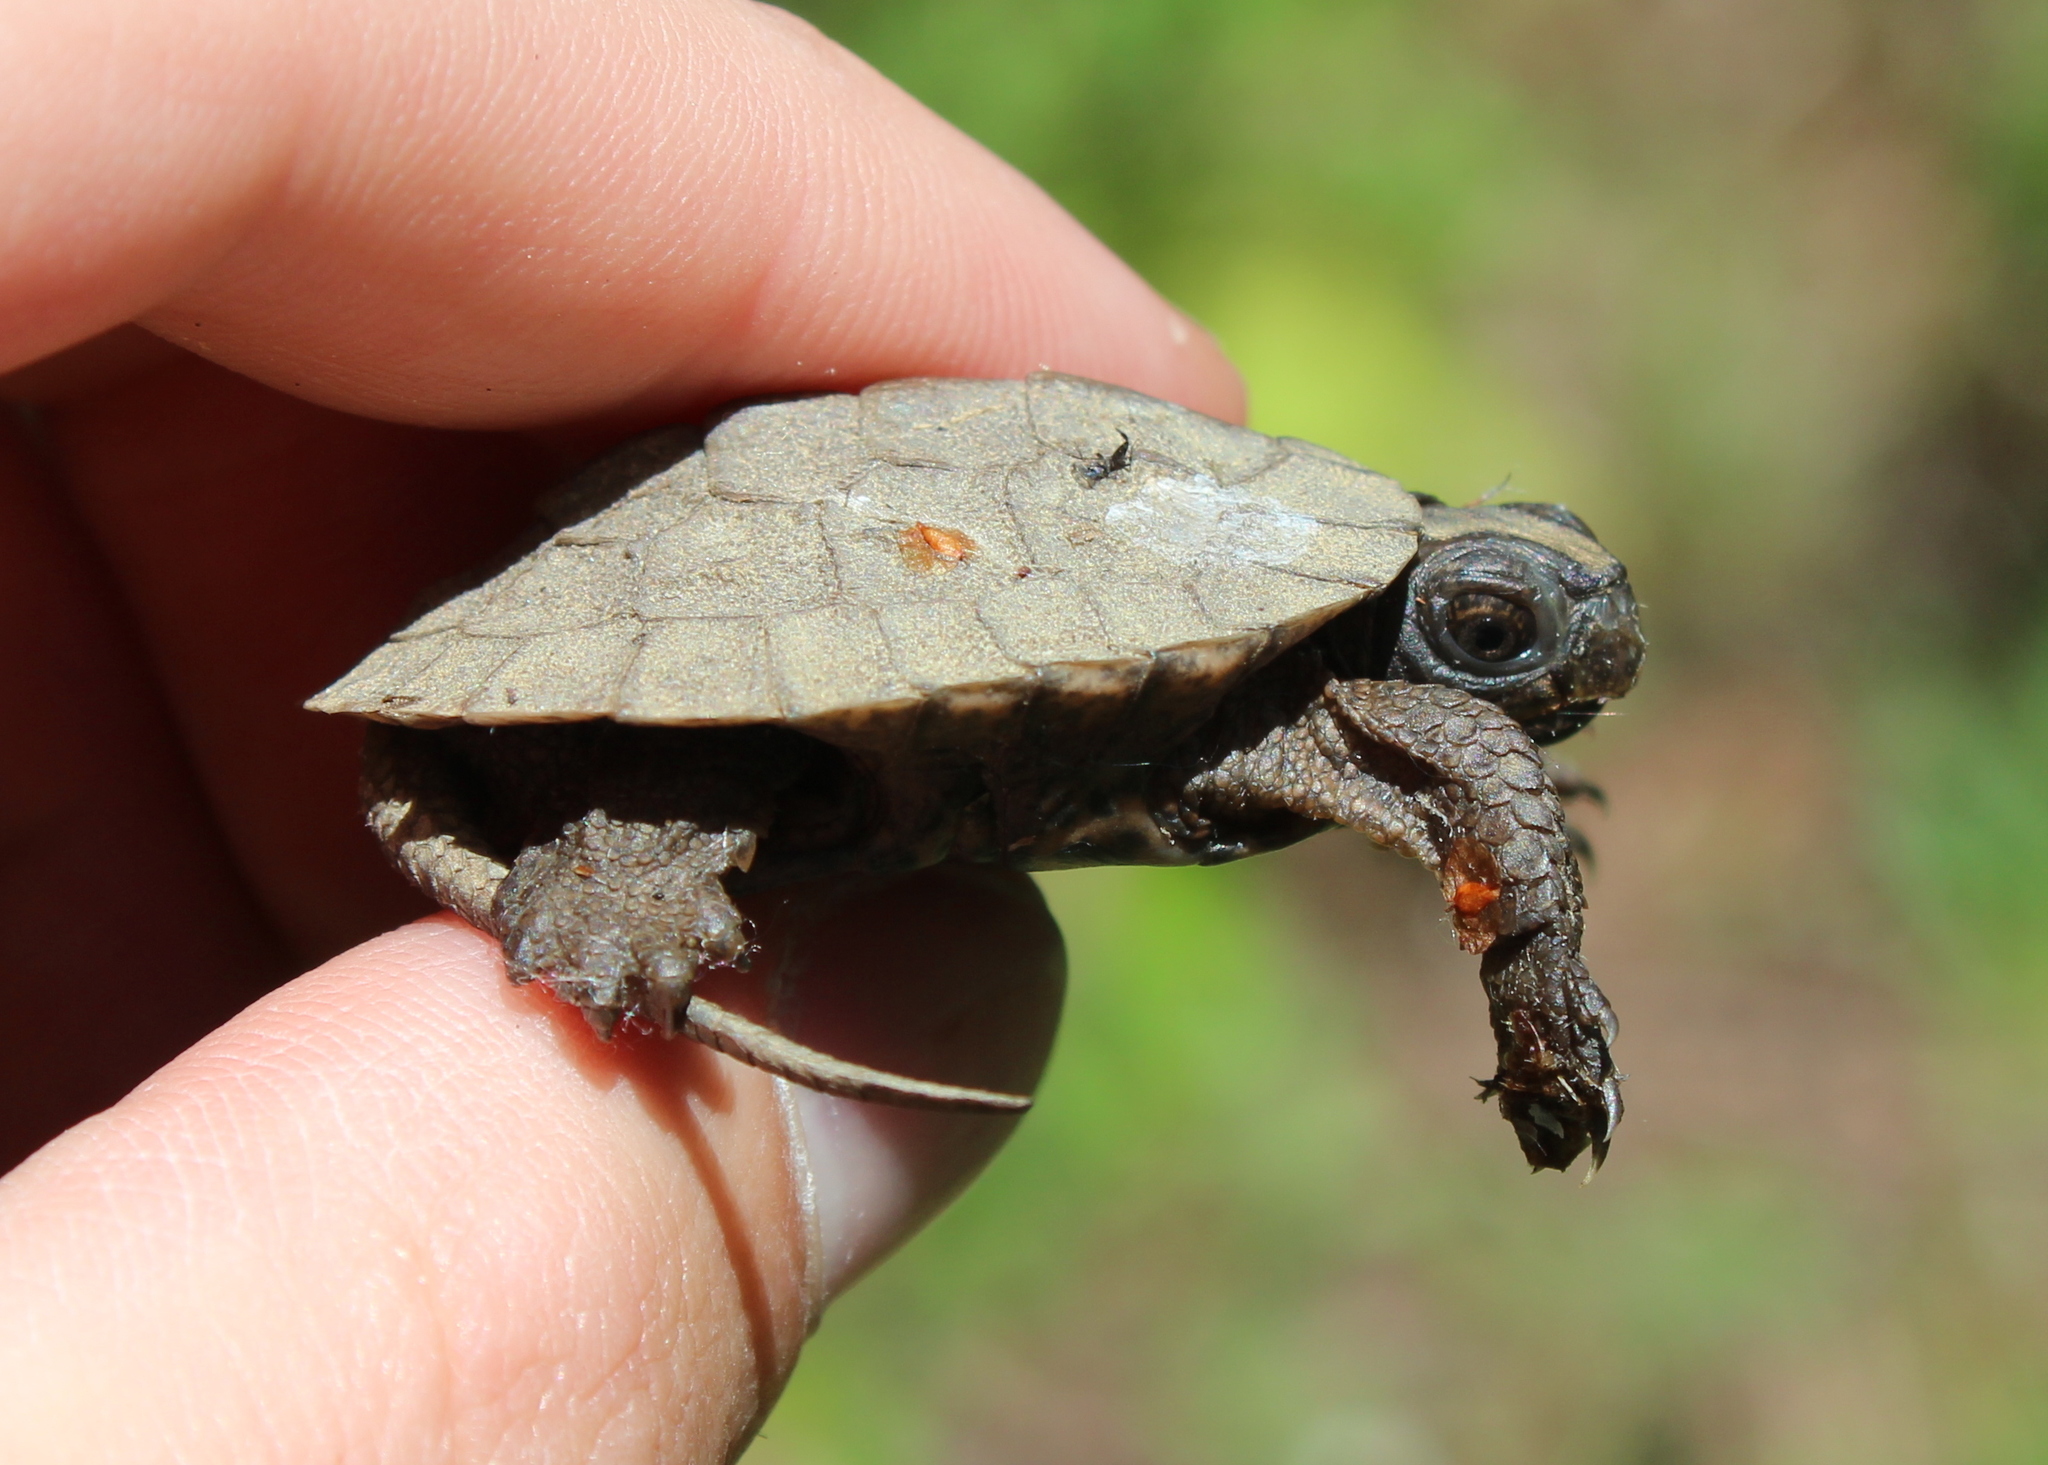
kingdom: Animalia
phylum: Chordata
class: Testudines
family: Emydidae
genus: Glyptemys
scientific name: Glyptemys insculpta
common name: Wood turtle
